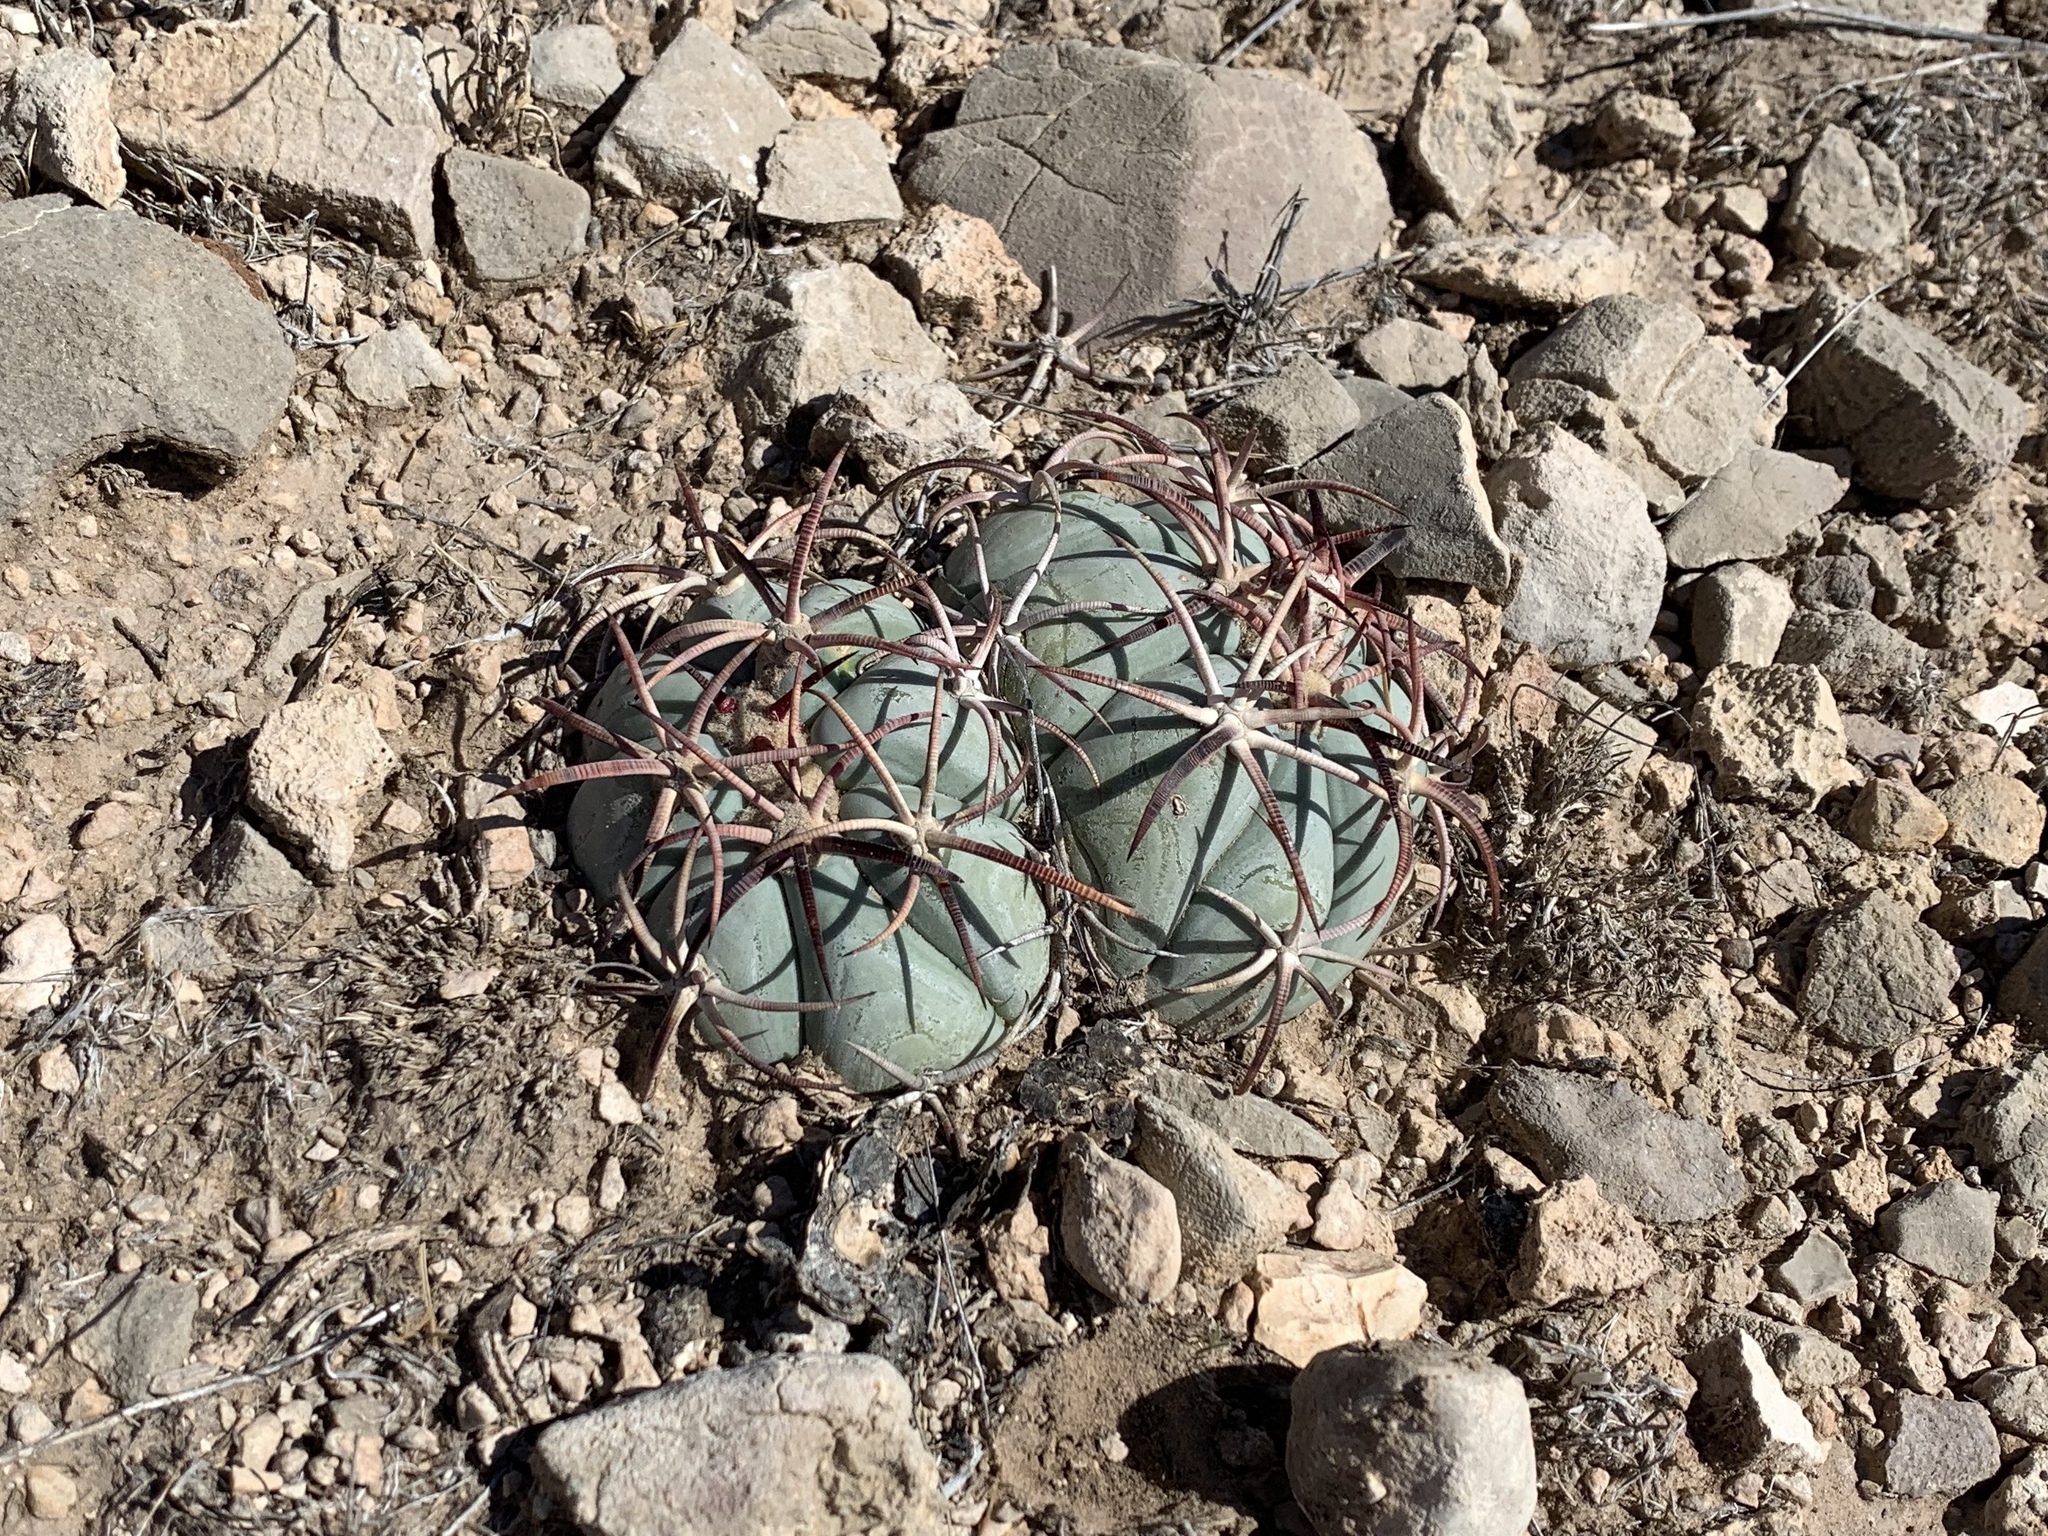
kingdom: Plantae
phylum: Tracheophyta
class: Magnoliopsida
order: Caryophyllales
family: Cactaceae
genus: Echinocactus
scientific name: Echinocactus horizonthalonius
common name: Devilshead
